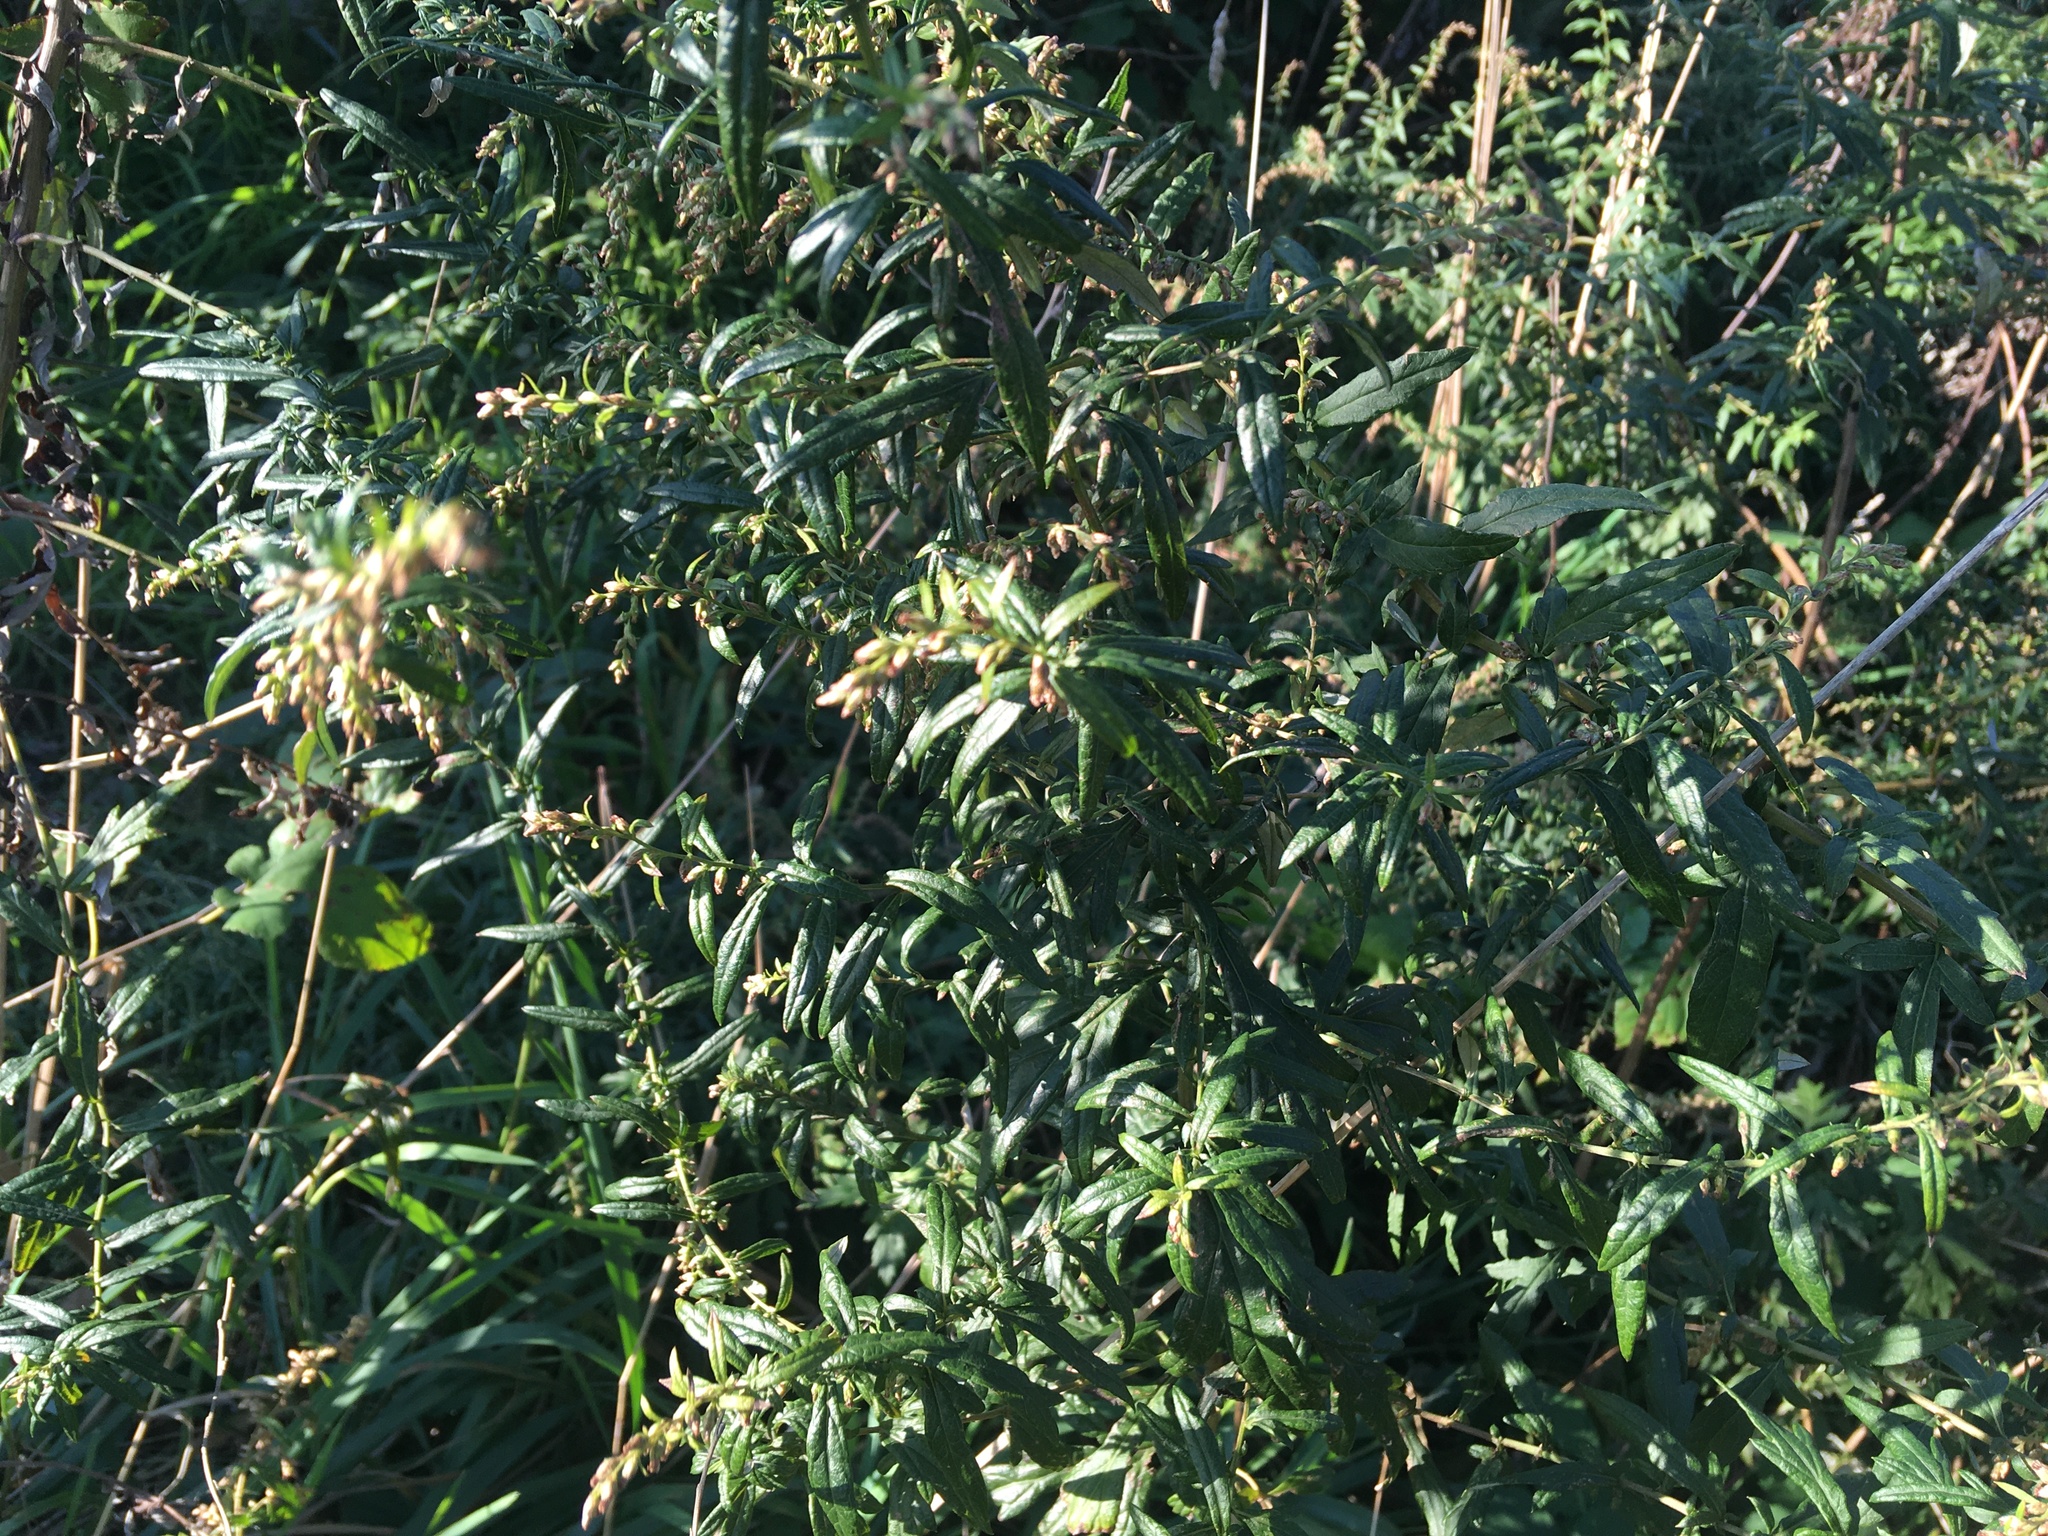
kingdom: Plantae
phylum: Tracheophyta
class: Magnoliopsida
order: Asterales
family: Asteraceae
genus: Artemisia
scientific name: Artemisia vulgaris
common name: Mugwort
